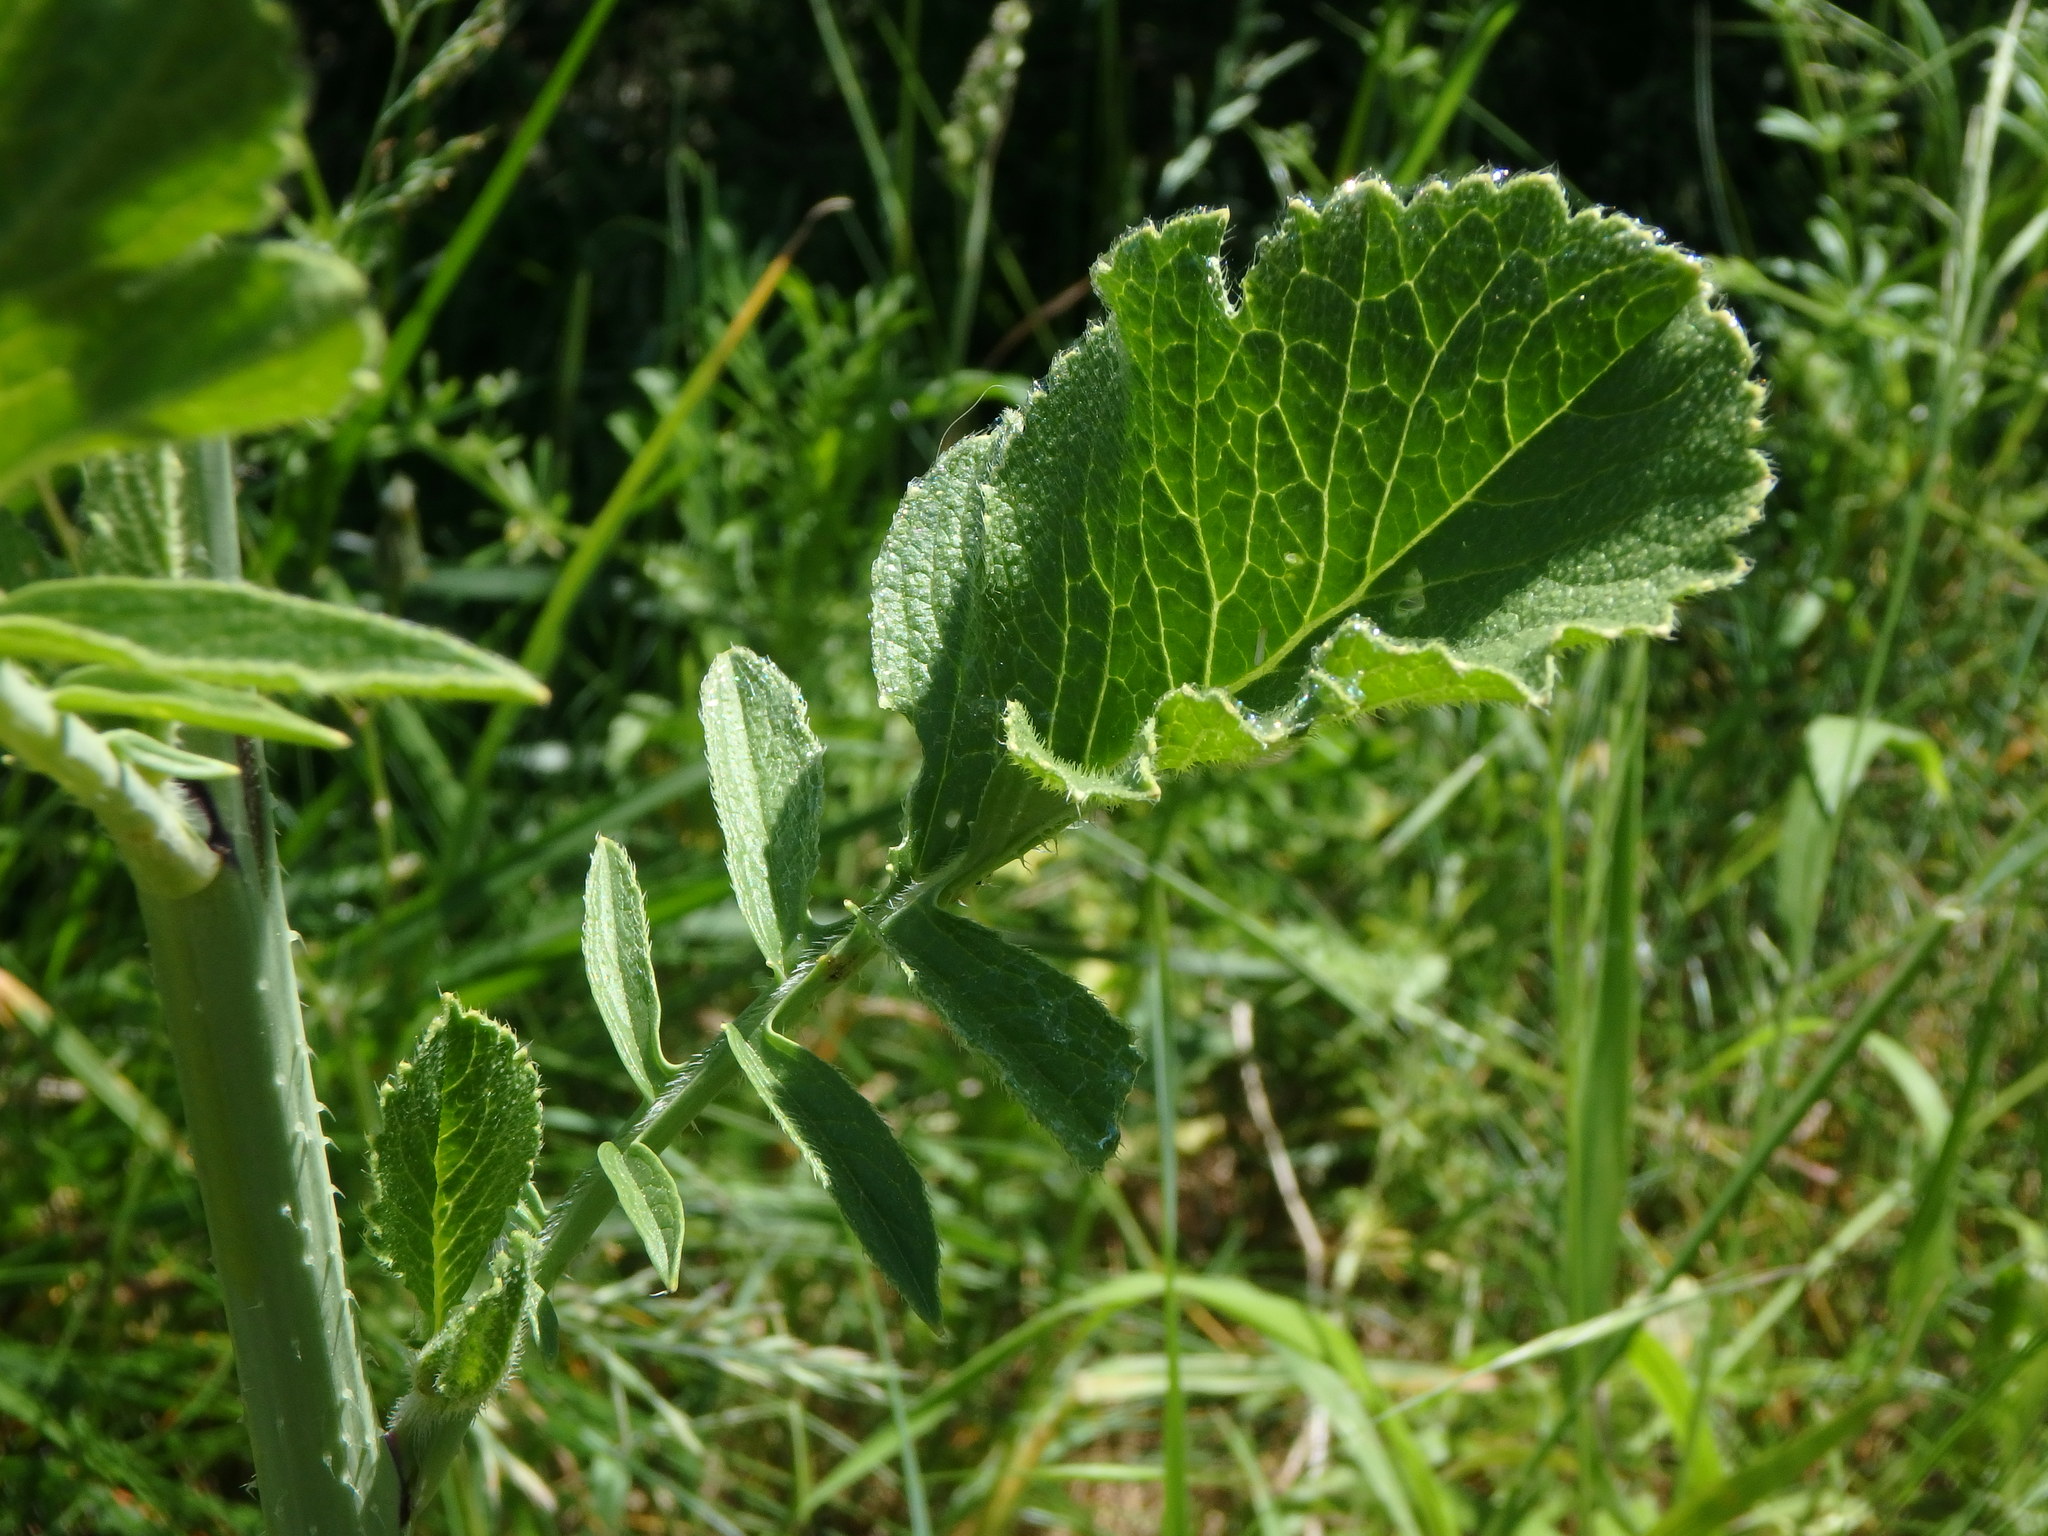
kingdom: Plantae
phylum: Tracheophyta
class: Magnoliopsida
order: Brassicales
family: Brassicaceae
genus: Raphanus
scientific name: Raphanus raphanistrum
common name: Wild radish
